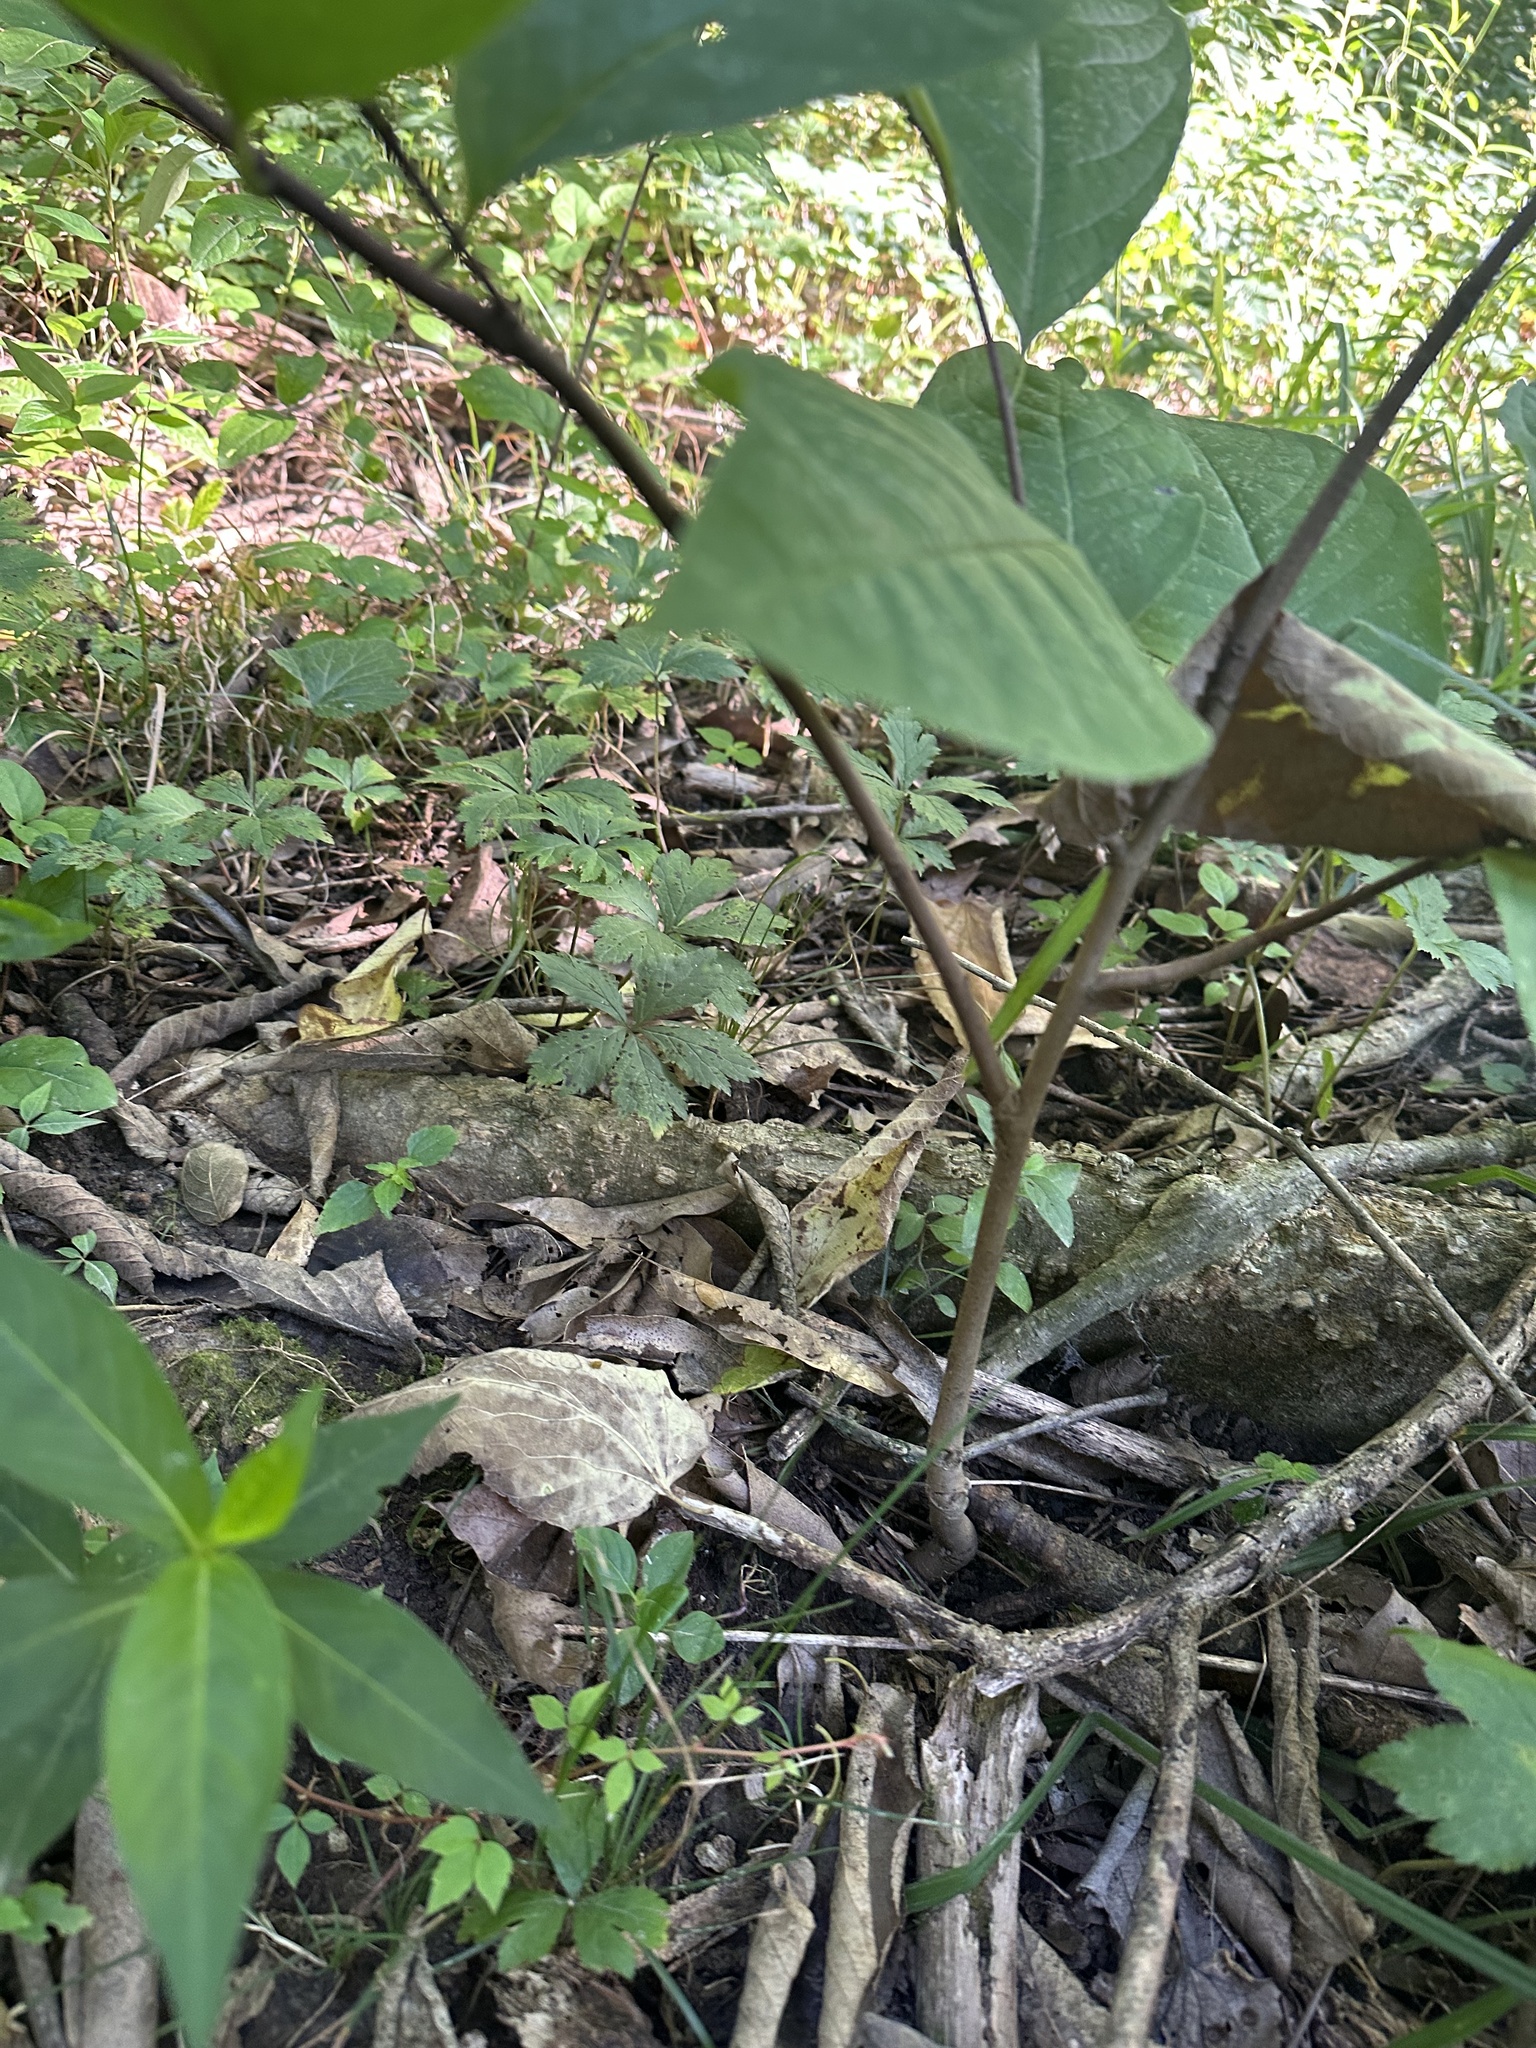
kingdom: Plantae
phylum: Tracheophyta
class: Magnoliopsida
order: Magnoliales
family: Annonaceae
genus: Asimina
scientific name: Asimina triloba
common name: Dog-banana
